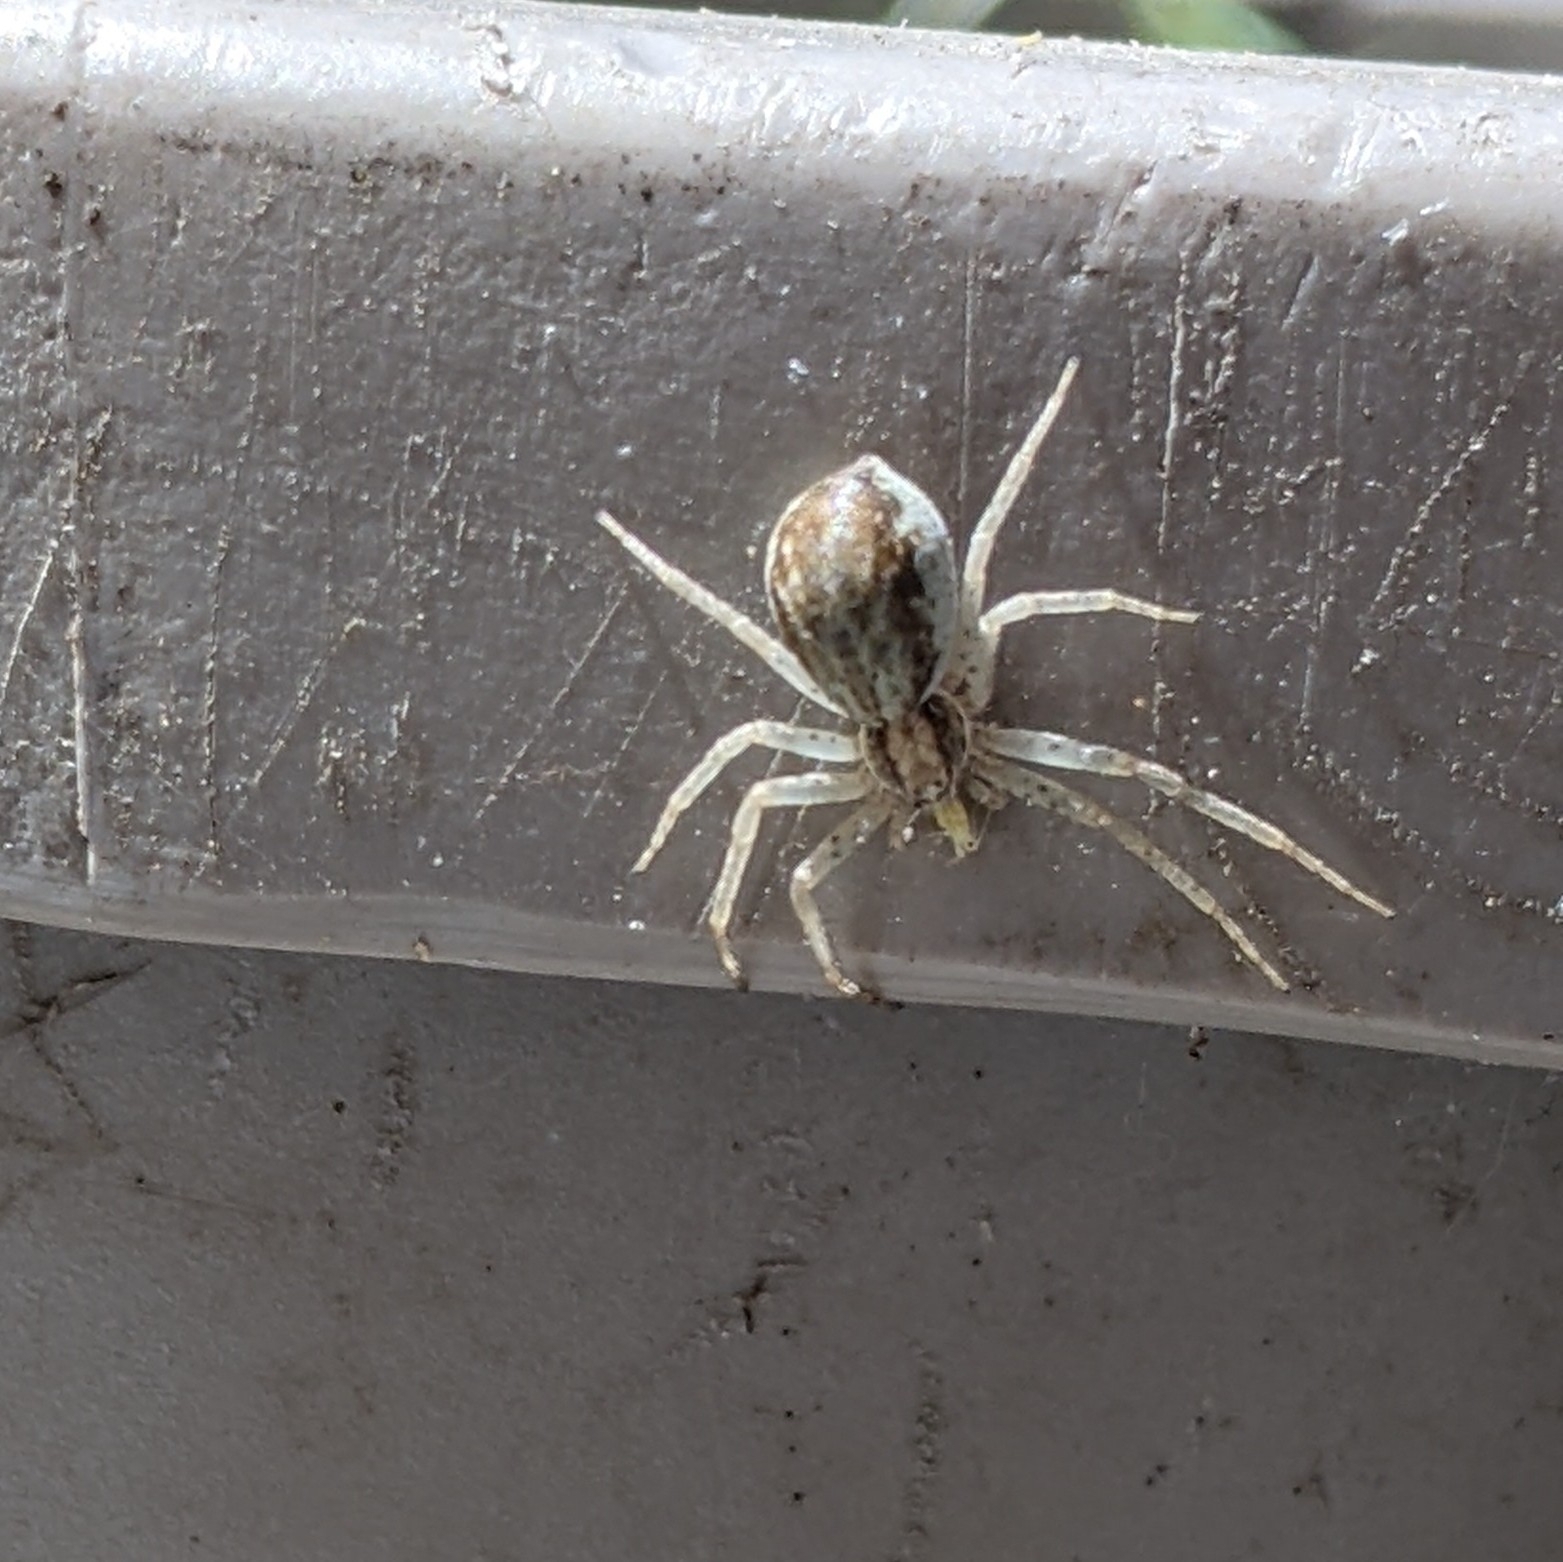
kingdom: Animalia
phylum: Arthropoda
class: Arachnida
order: Araneae
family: Philodromidae
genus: Philodromus
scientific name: Philodromus dispar
